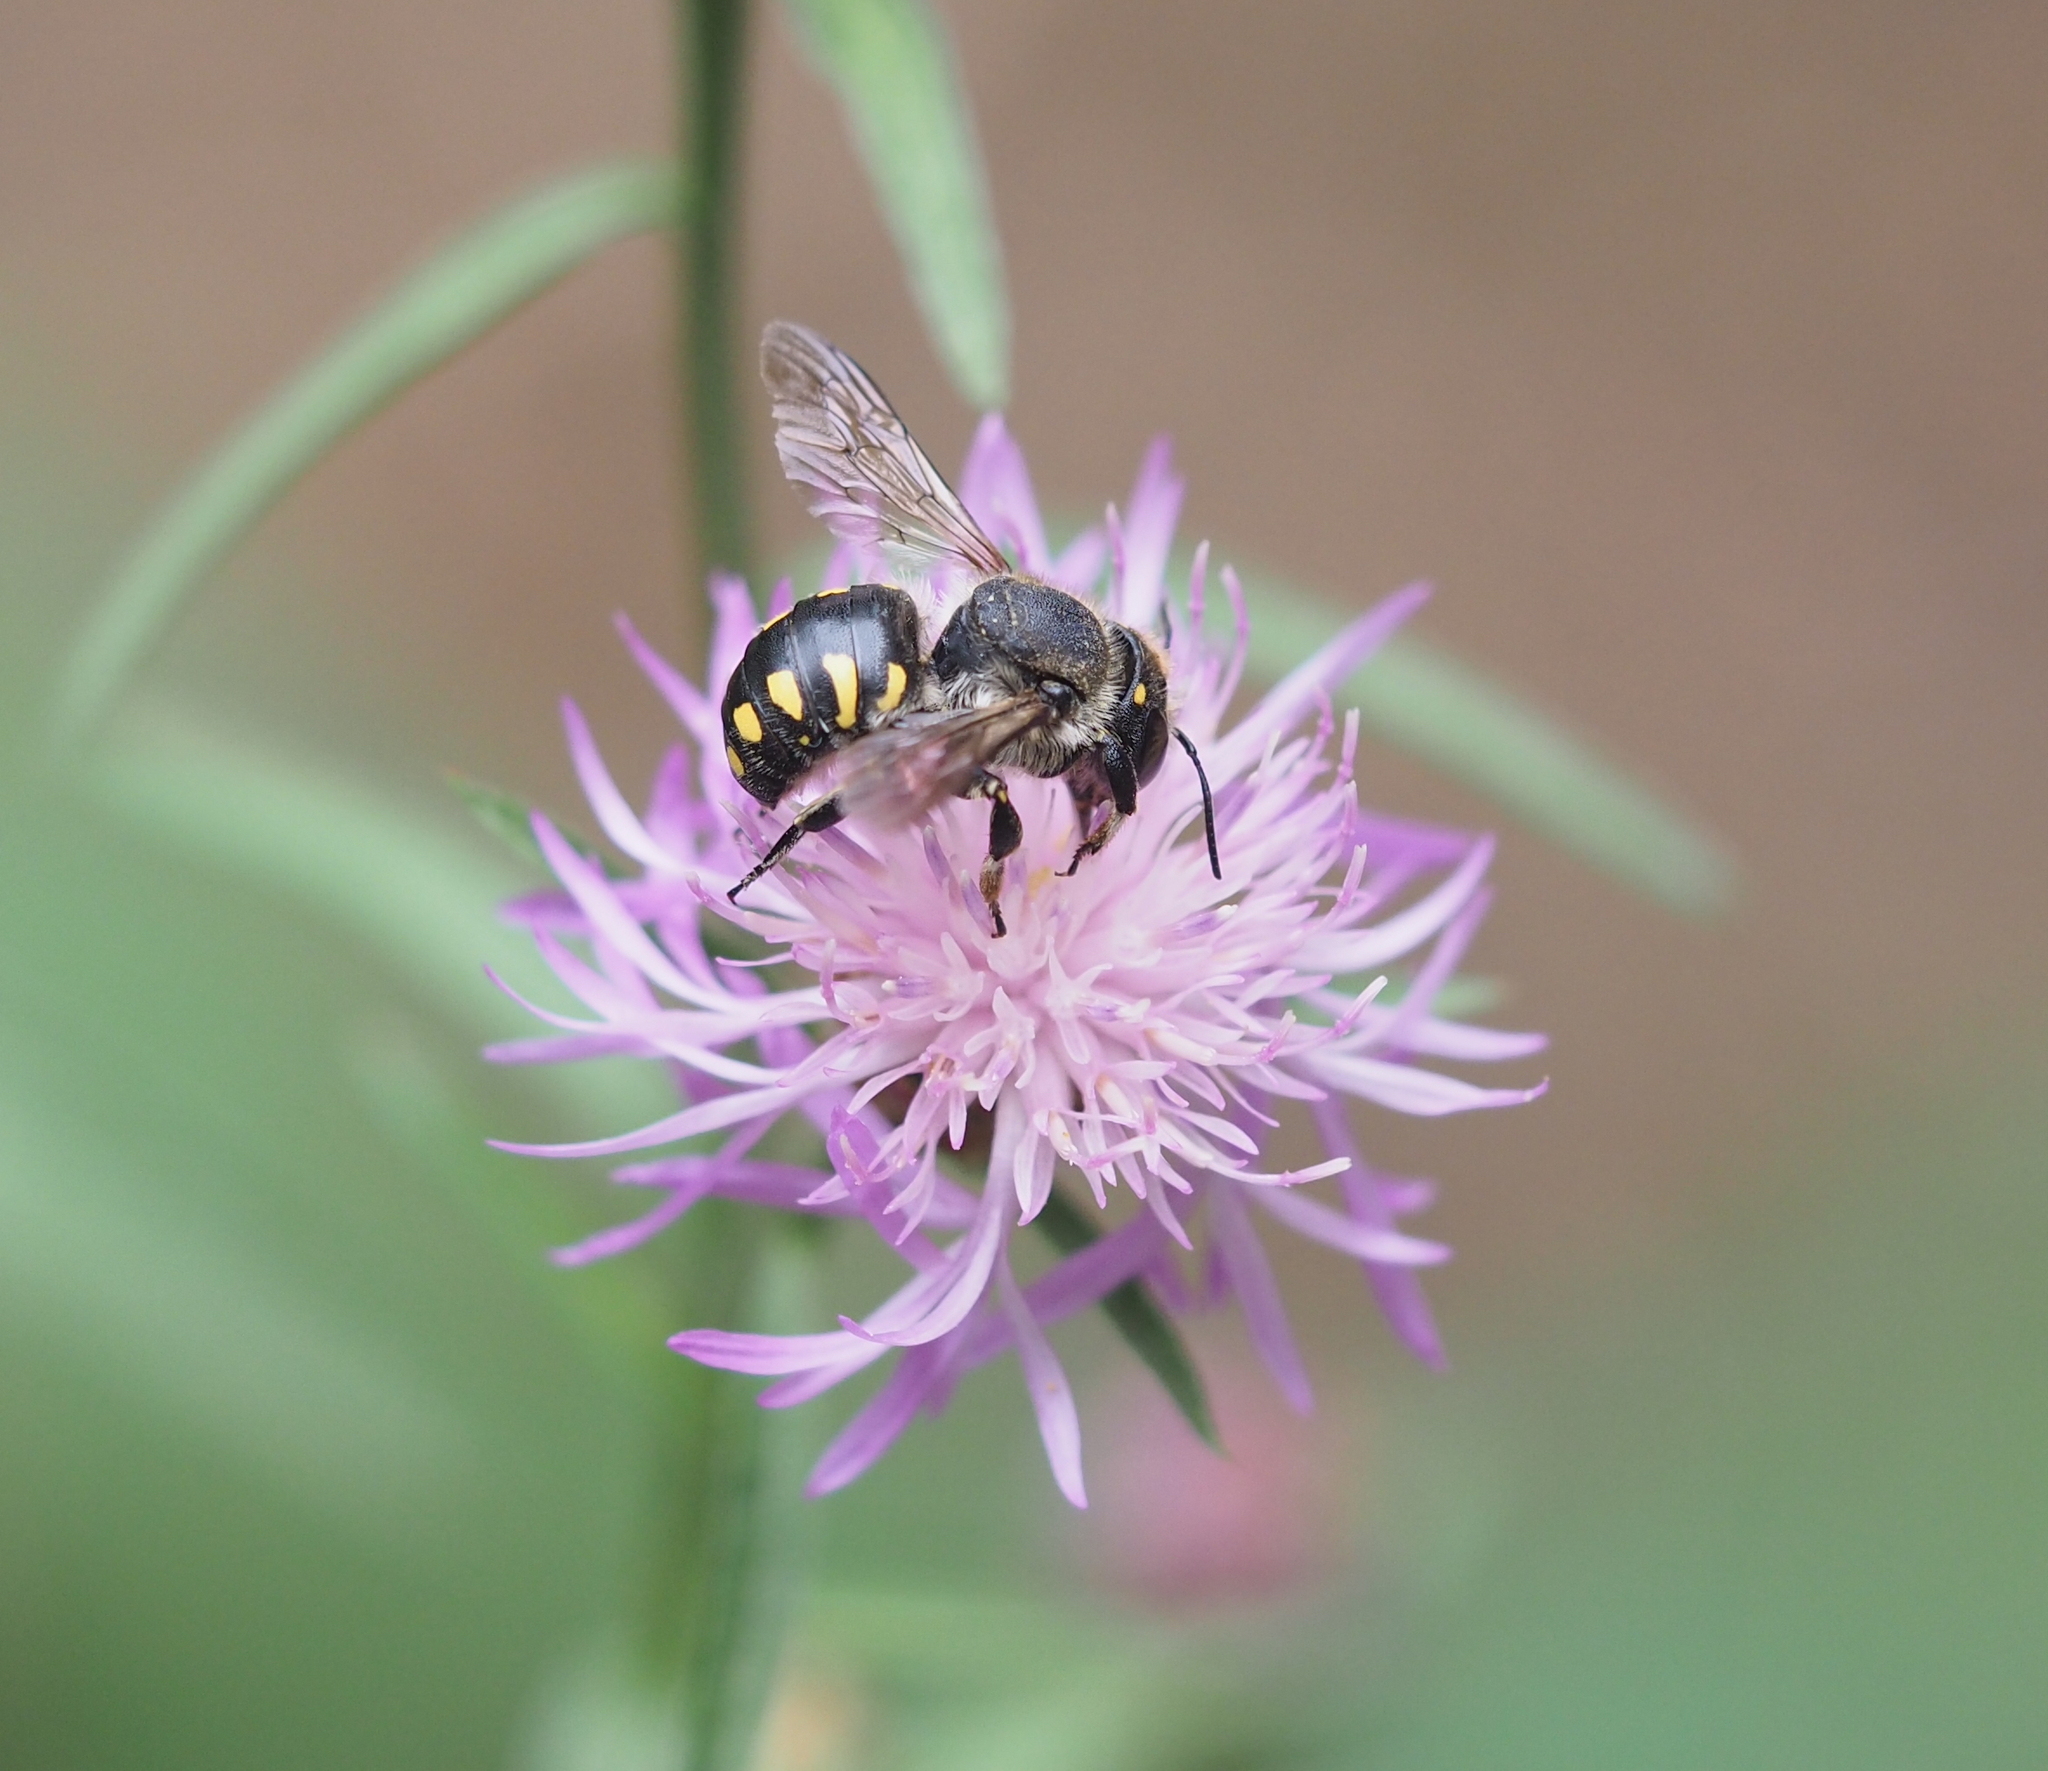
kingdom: Animalia
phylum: Arthropoda
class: Insecta
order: Hymenoptera
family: Megachilidae
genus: Anthidium
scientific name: Anthidium septemspinosum
